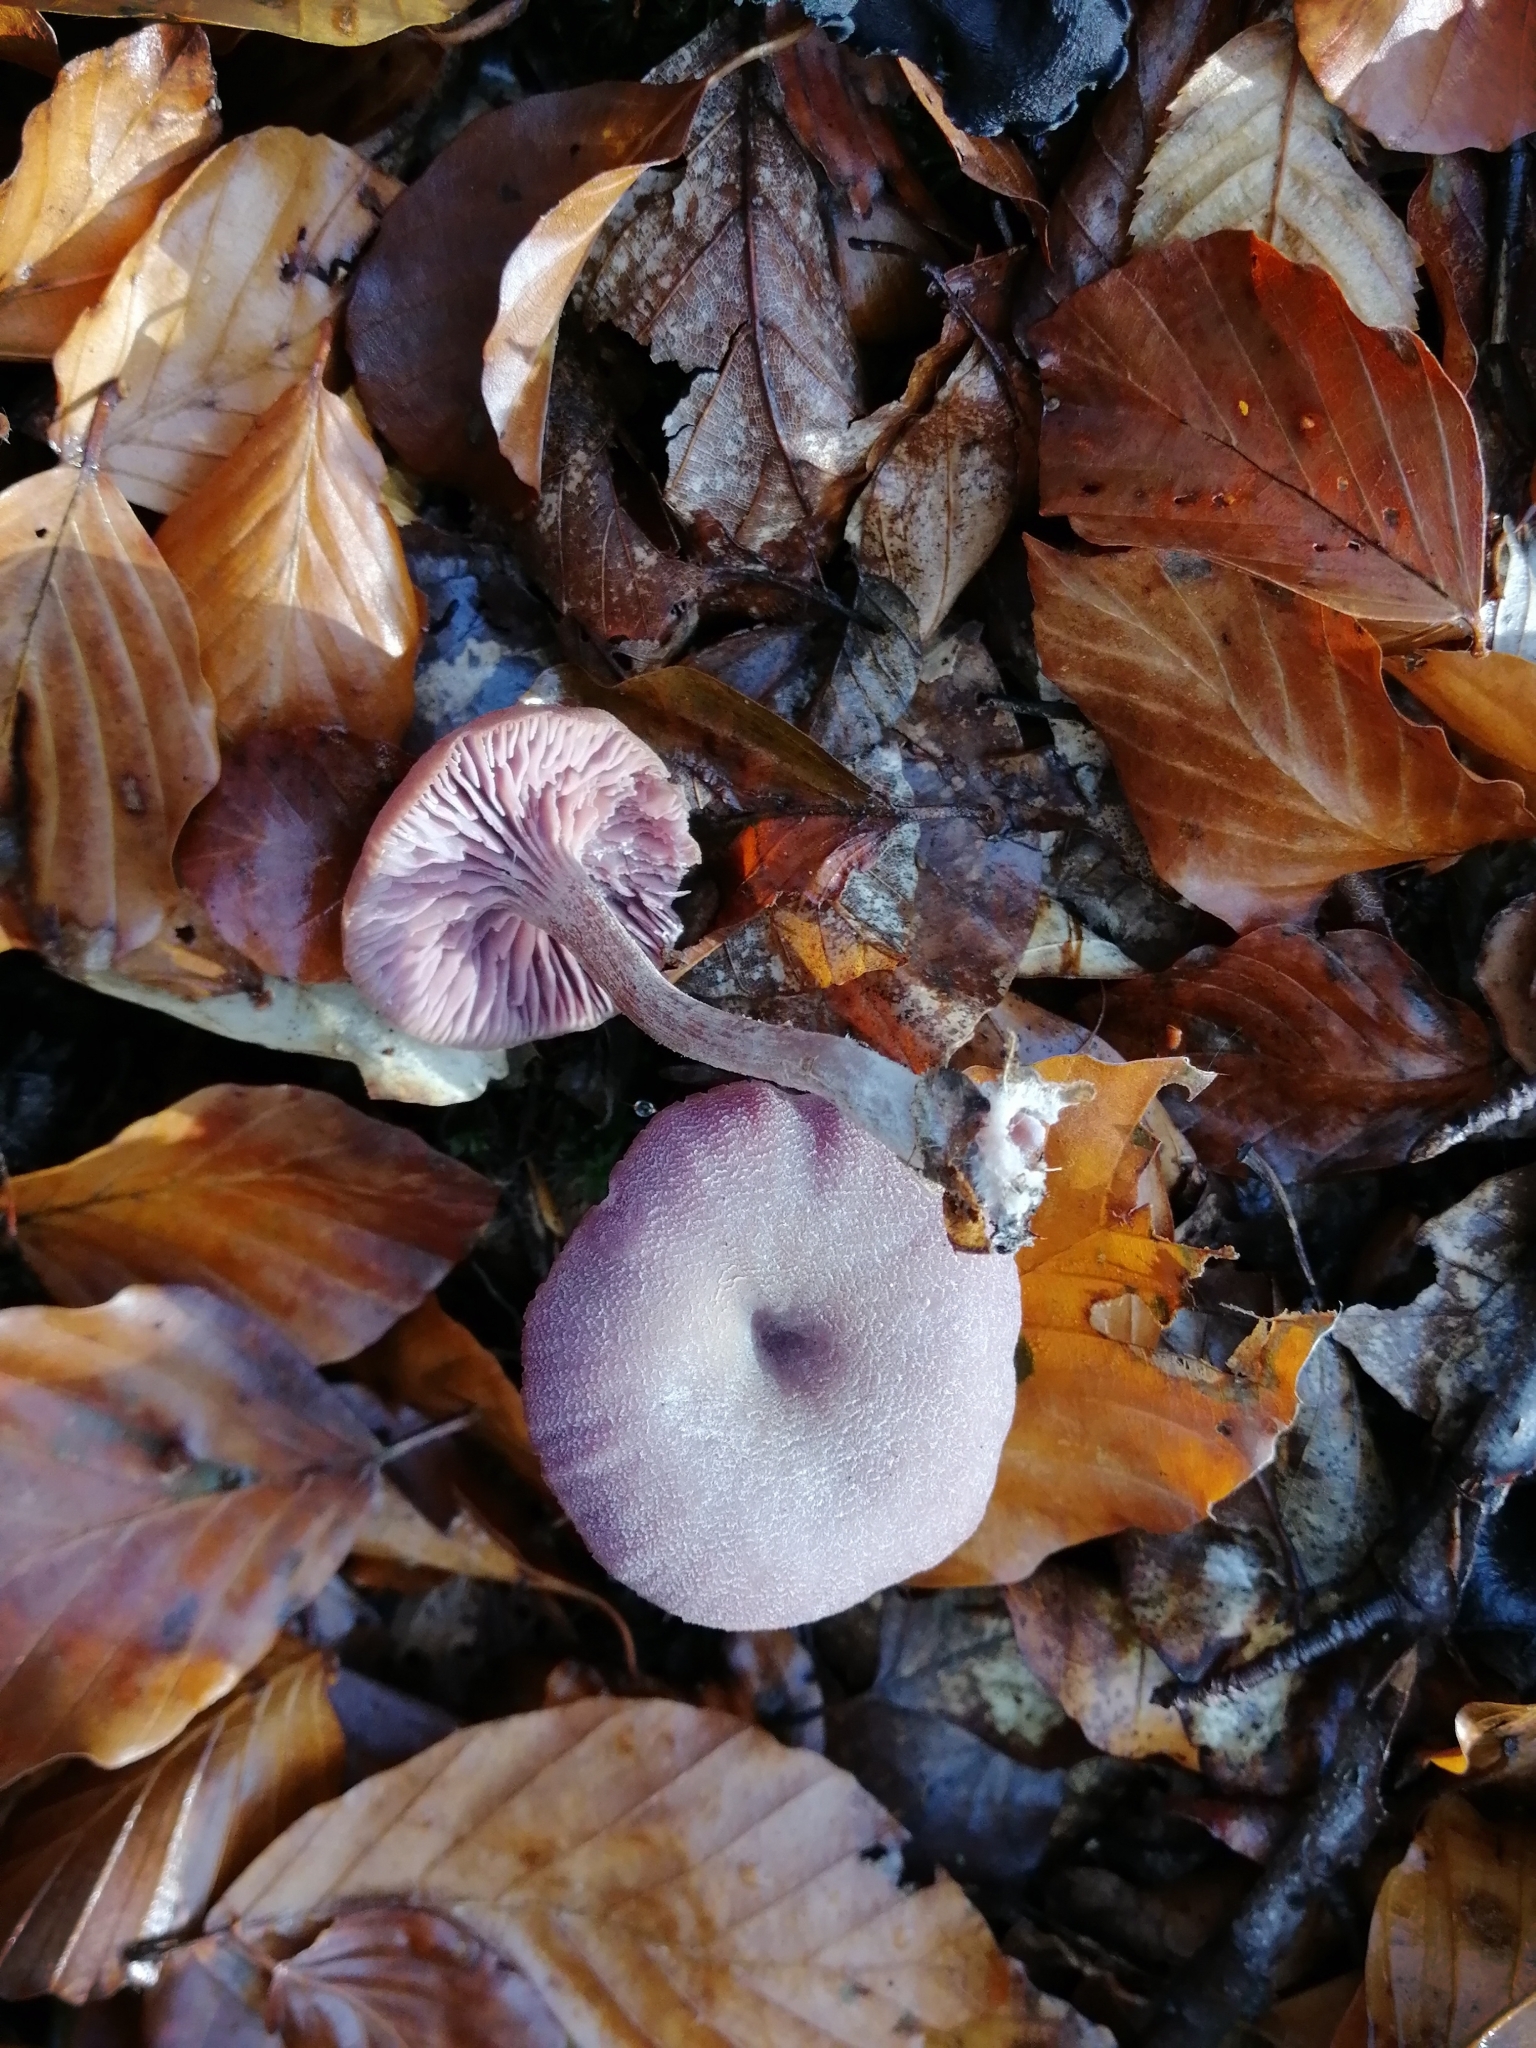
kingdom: Fungi
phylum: Basidiomycota
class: Agaricomycetes
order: Agaricales
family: Hydnangiaceae
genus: Laccaria
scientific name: Laccaria amethystina
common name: Amethyst deceiver
